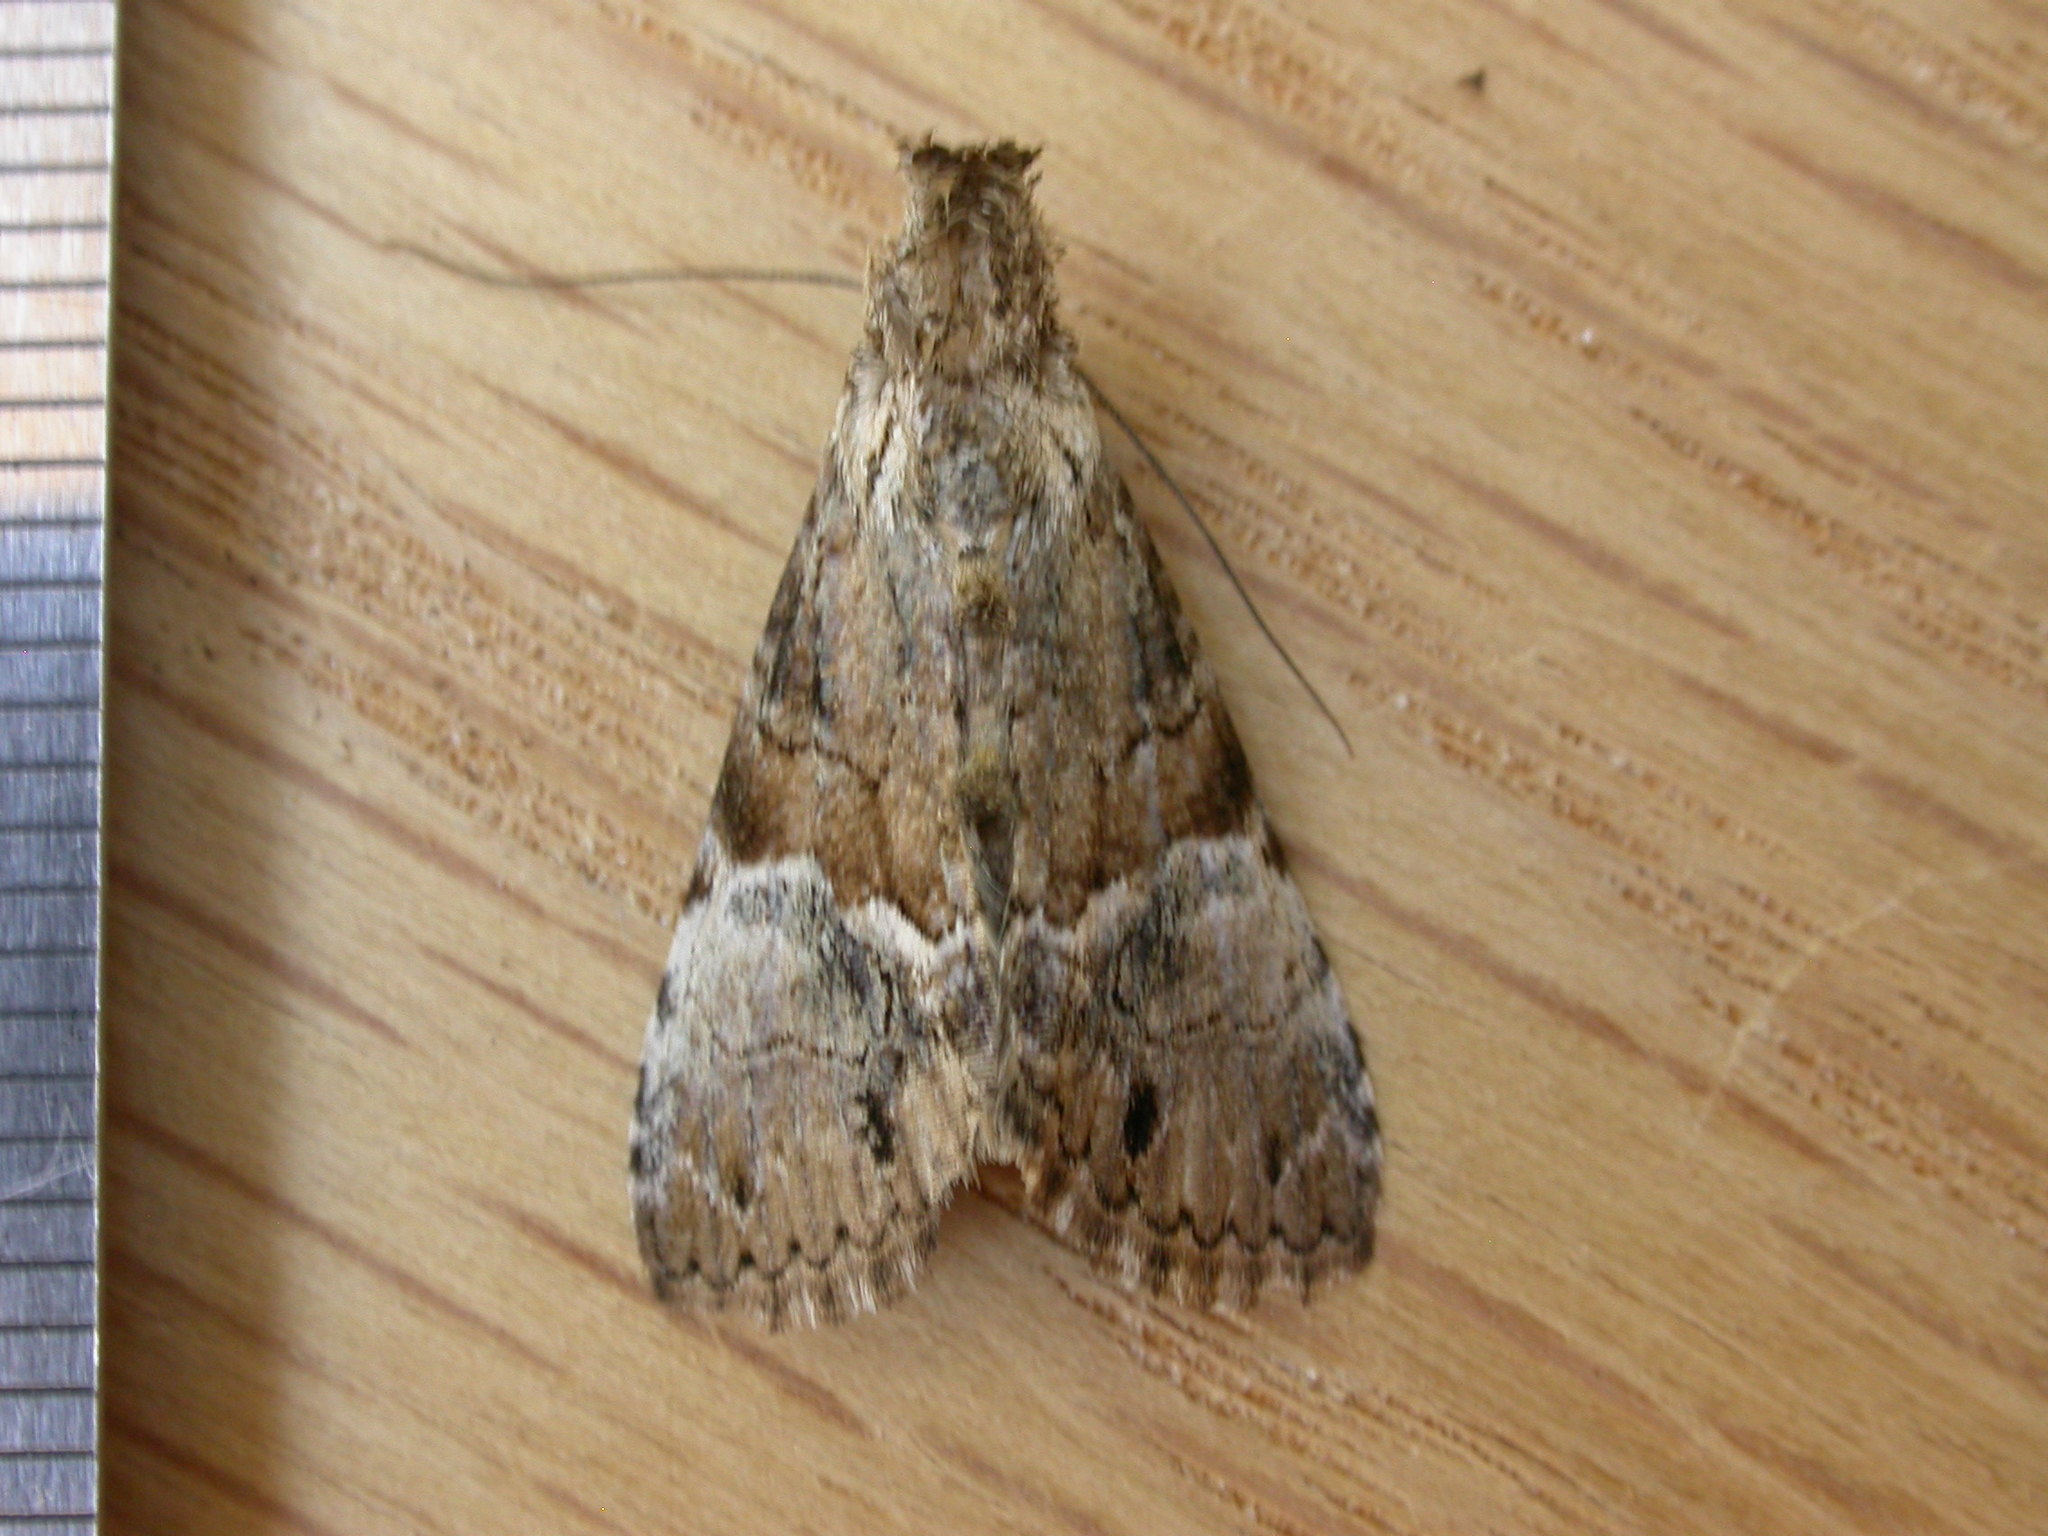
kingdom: Animalia
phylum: Arthropoda
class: Insecta
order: Lepidoptera
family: Erebidae
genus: Alophosoma
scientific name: Alophosoma emmelopis
